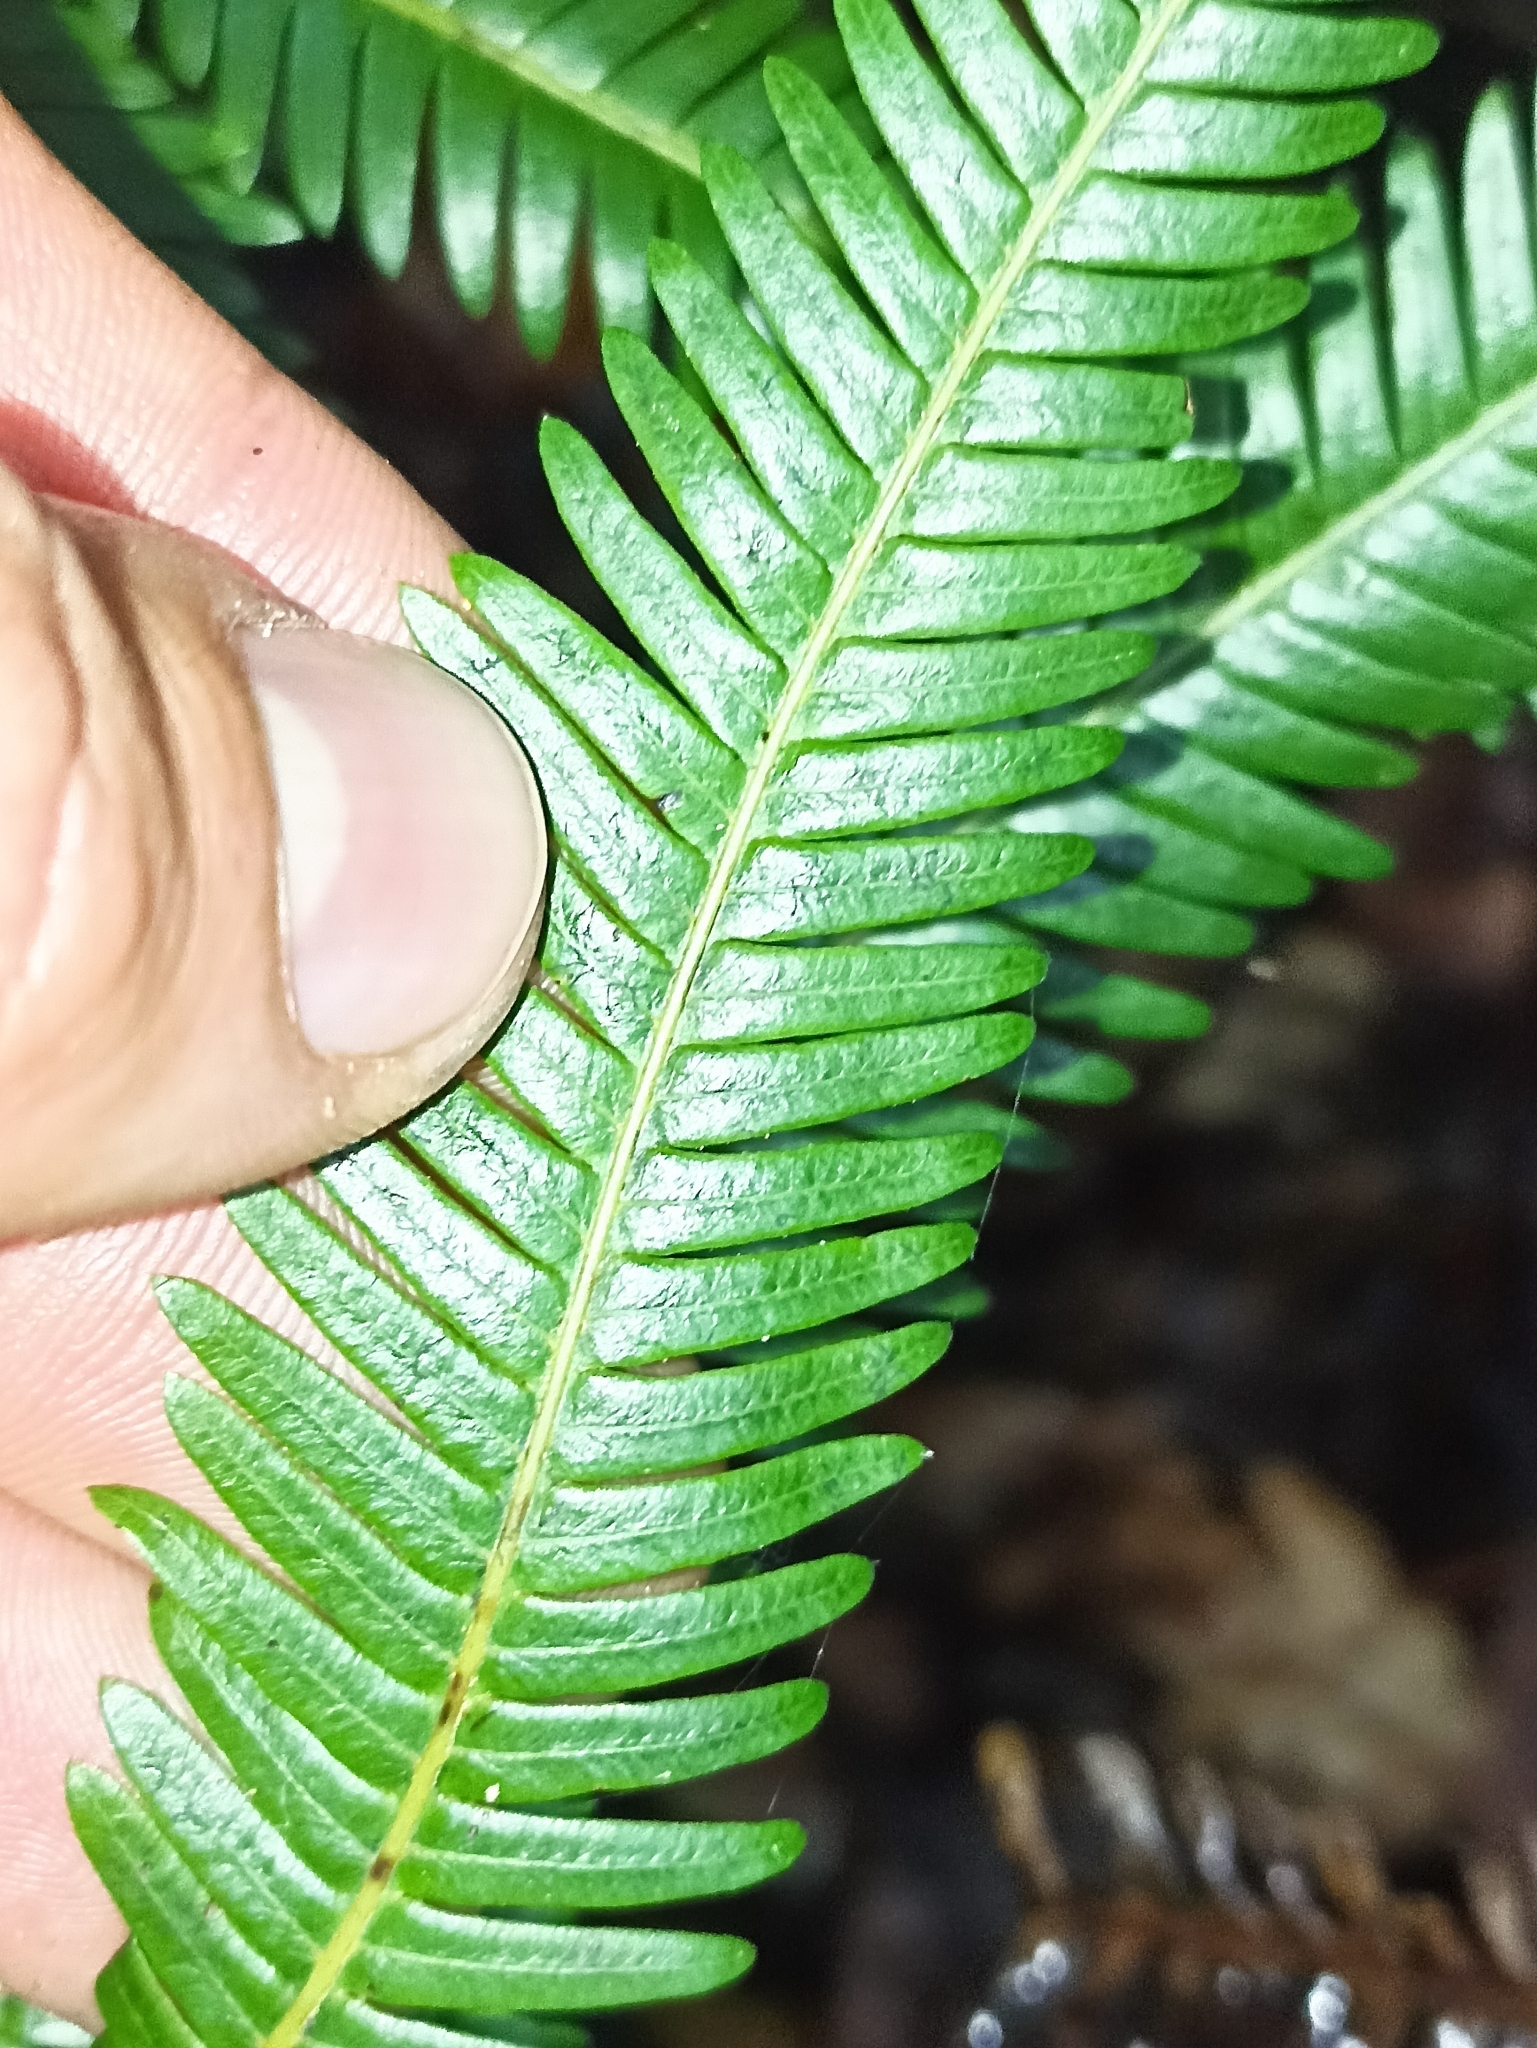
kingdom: Plantae
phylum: Tracheophyta
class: Polypodiopsida
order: Gleicheniales
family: Gleicheniaceae
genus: Sticherus
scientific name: Sticherus cunninghamii
